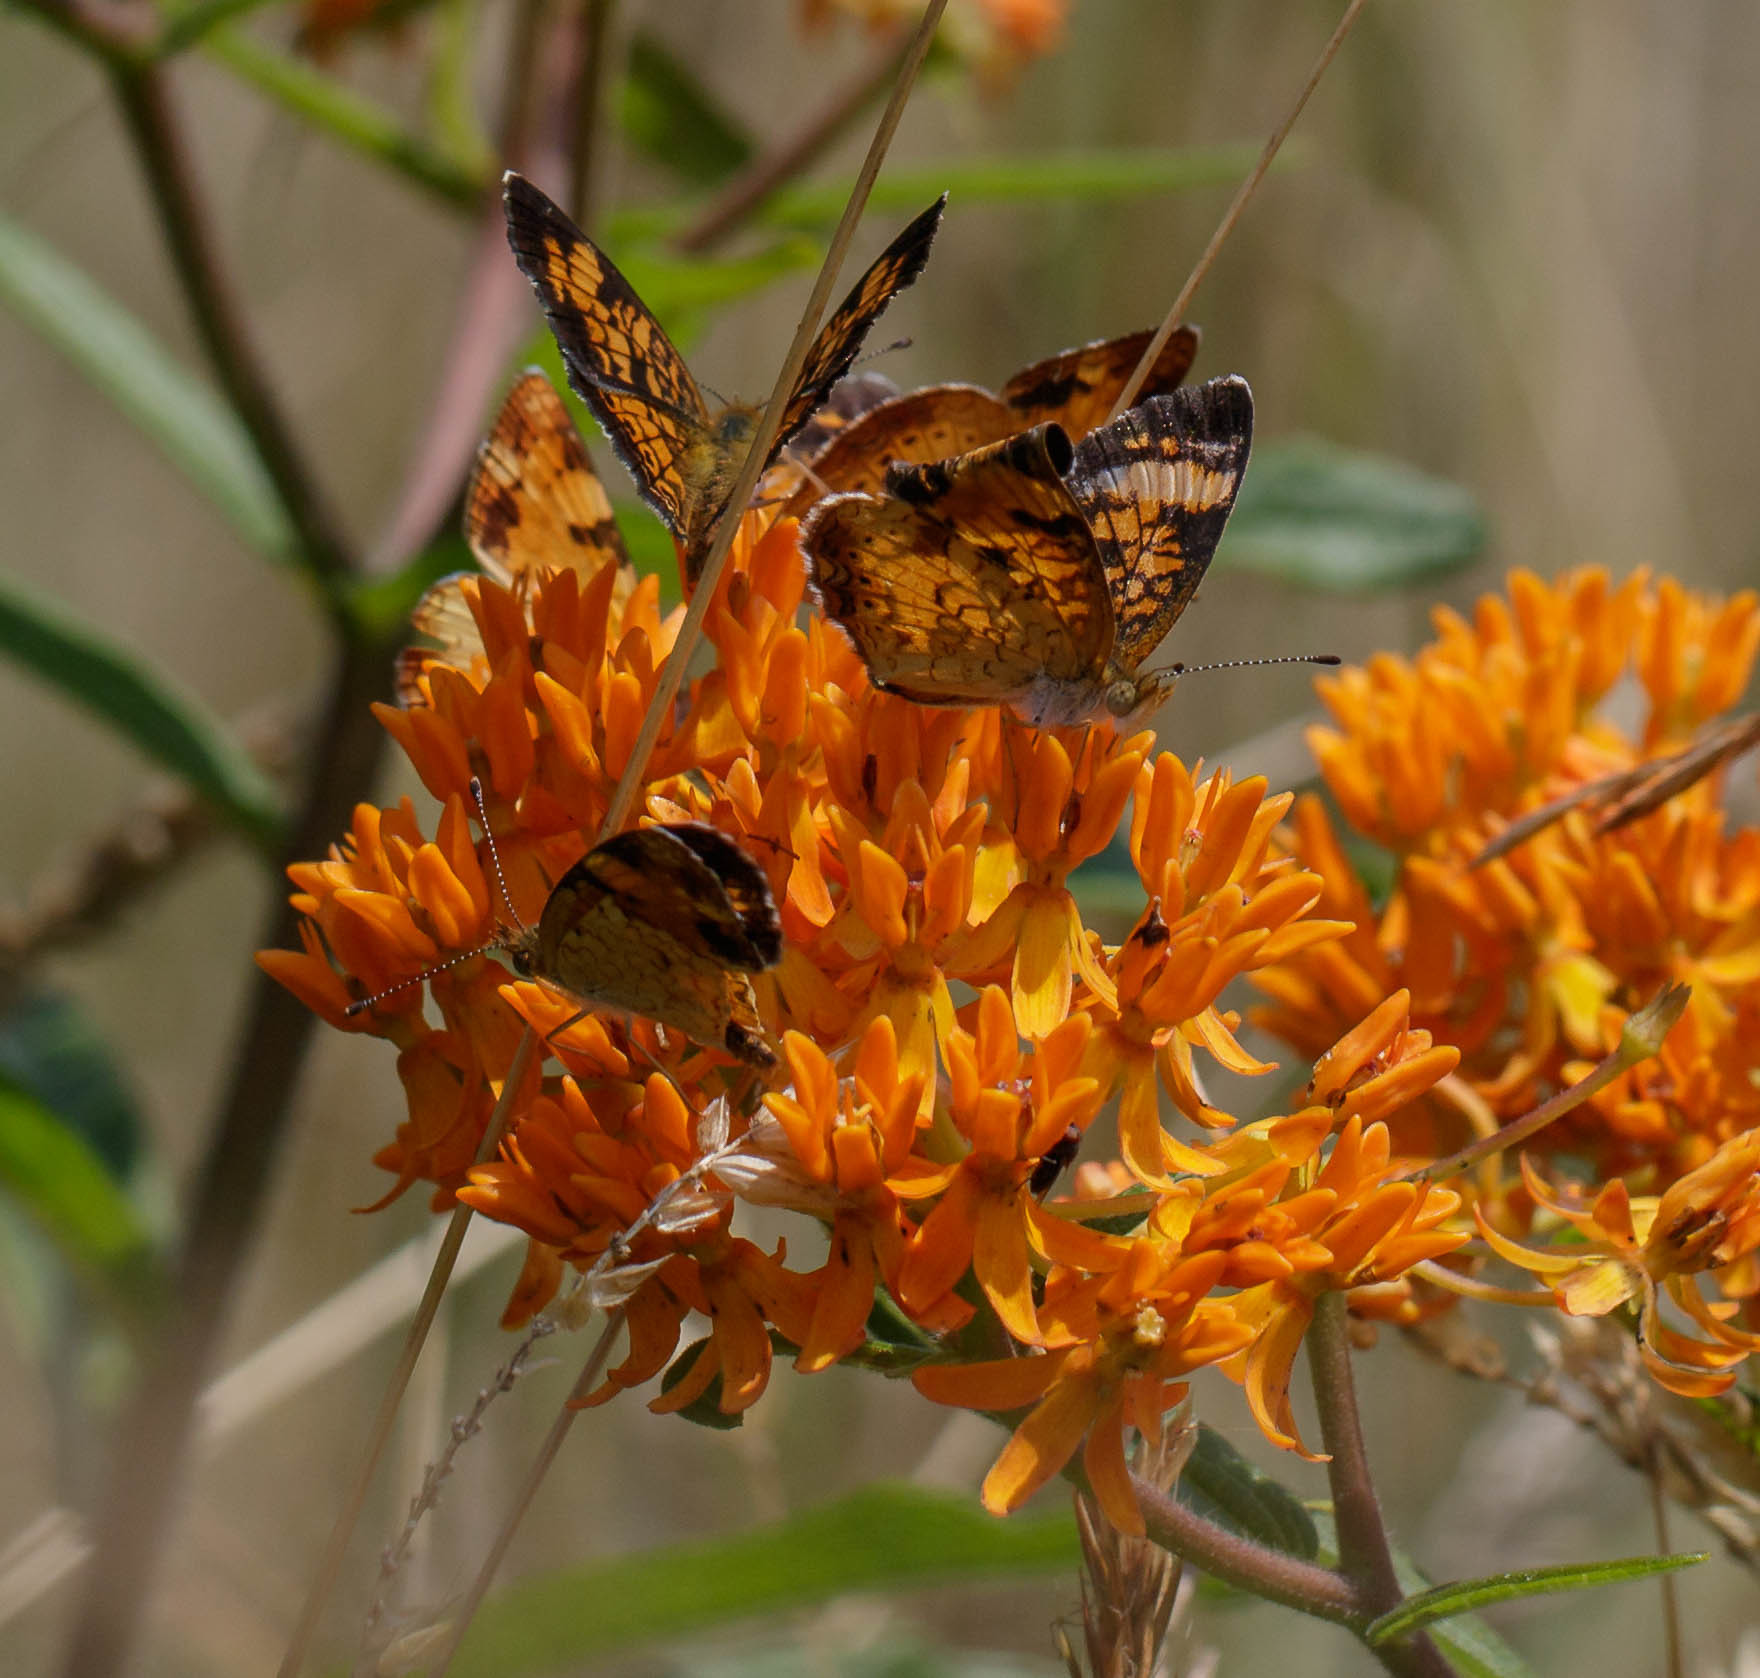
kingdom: Animalia
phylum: Arthropoda
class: Insecta
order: Lepidoptera
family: Nymphalidae
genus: Phyciodes
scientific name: Phyciodes tharos
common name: Pearl crescent
